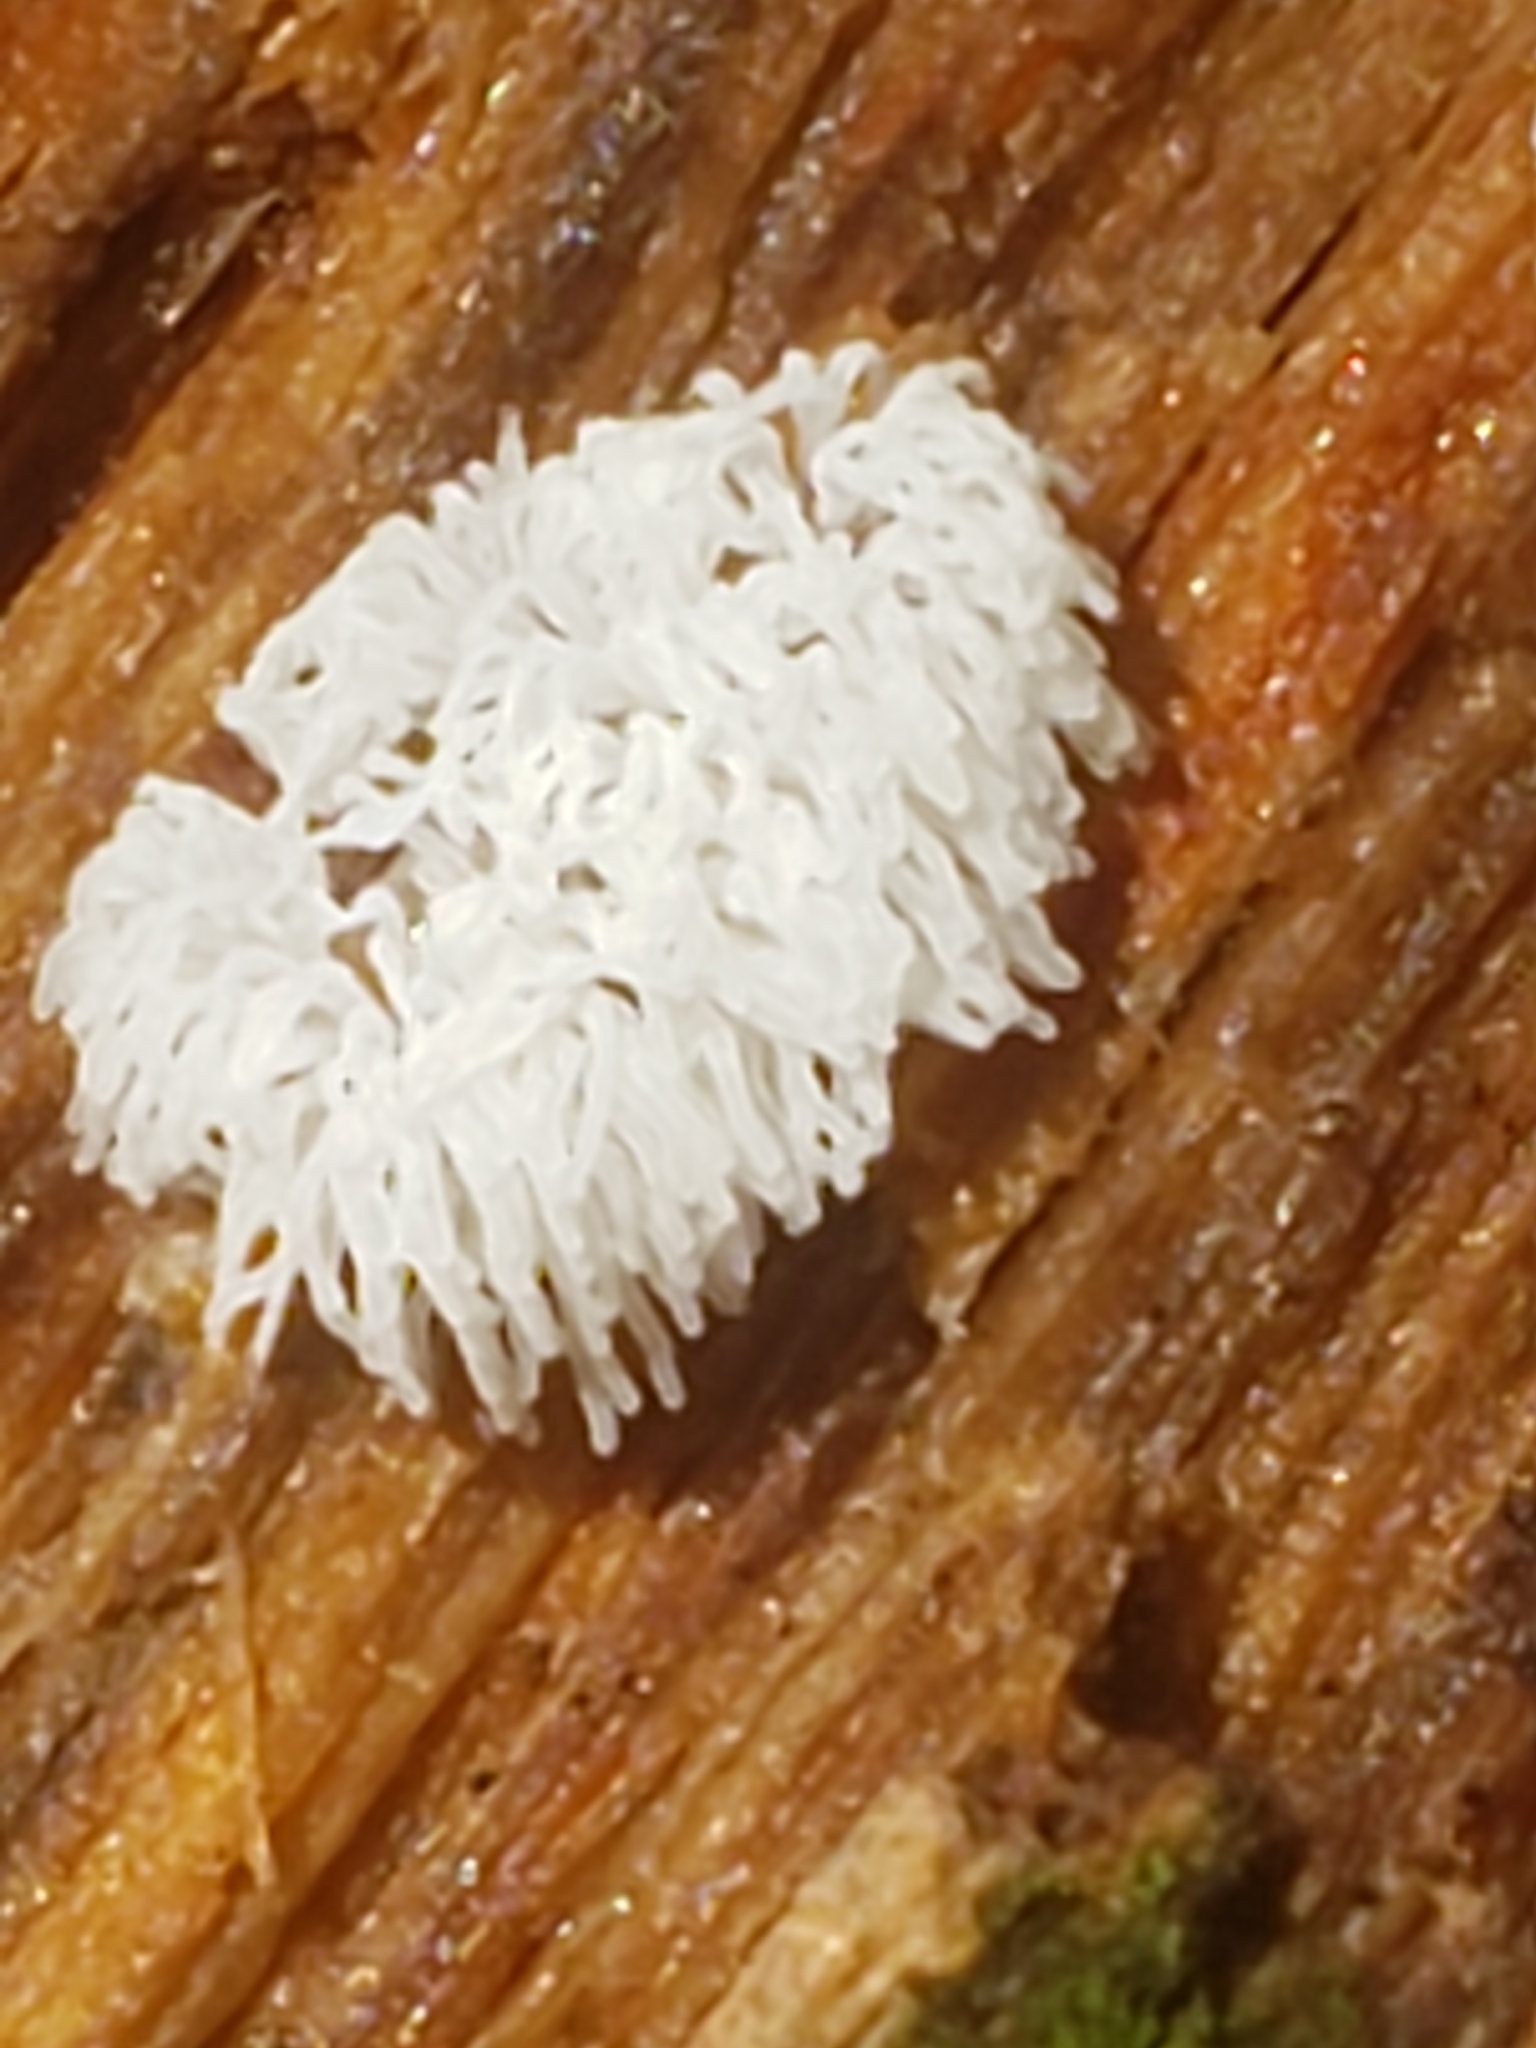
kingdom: Protozoa
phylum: Mycetozoa
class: Protosteliomycetes
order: Ceratiomyxales
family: Ceratiomyxaceae
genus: Ceratiomyxa
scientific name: Ceratiomyxa fruticulosa
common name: Honeycomb coral slime mold
